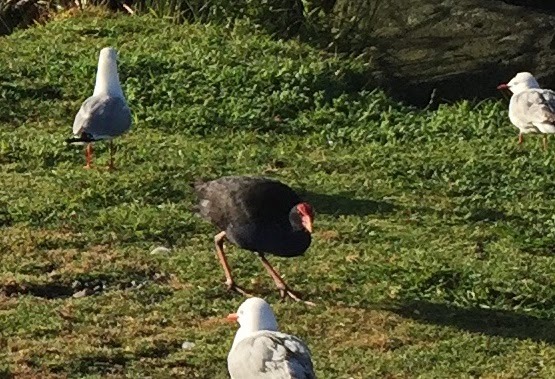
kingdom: Animalia
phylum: Chordata
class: Aves
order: Gruiformes
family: Rallidae
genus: Porphyrio
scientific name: Porphyrio melanotus
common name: Australasian swamphen
